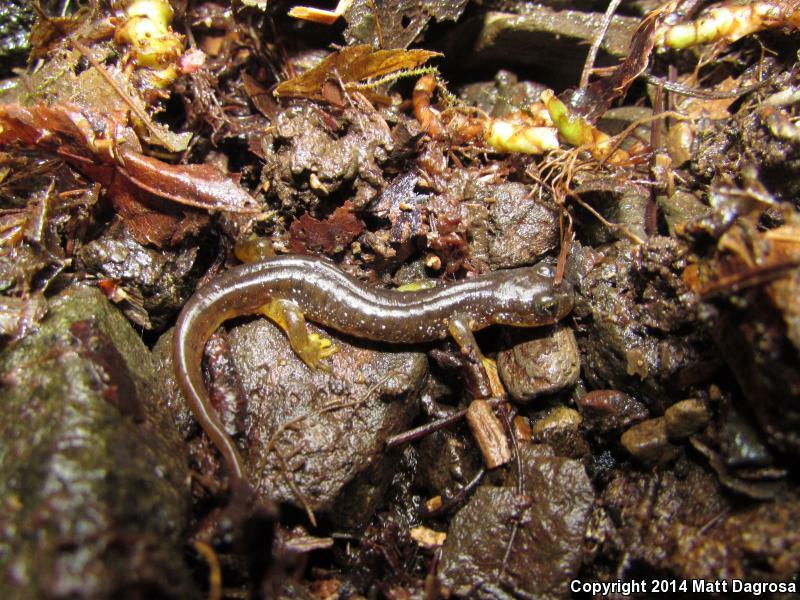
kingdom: Animalia
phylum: Chordata
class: Amphibia
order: Caudata
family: Rhyacotritonidae
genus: Rhyacotriton
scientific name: Rhyacotriton kezeri
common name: Columbia torrent salamander
